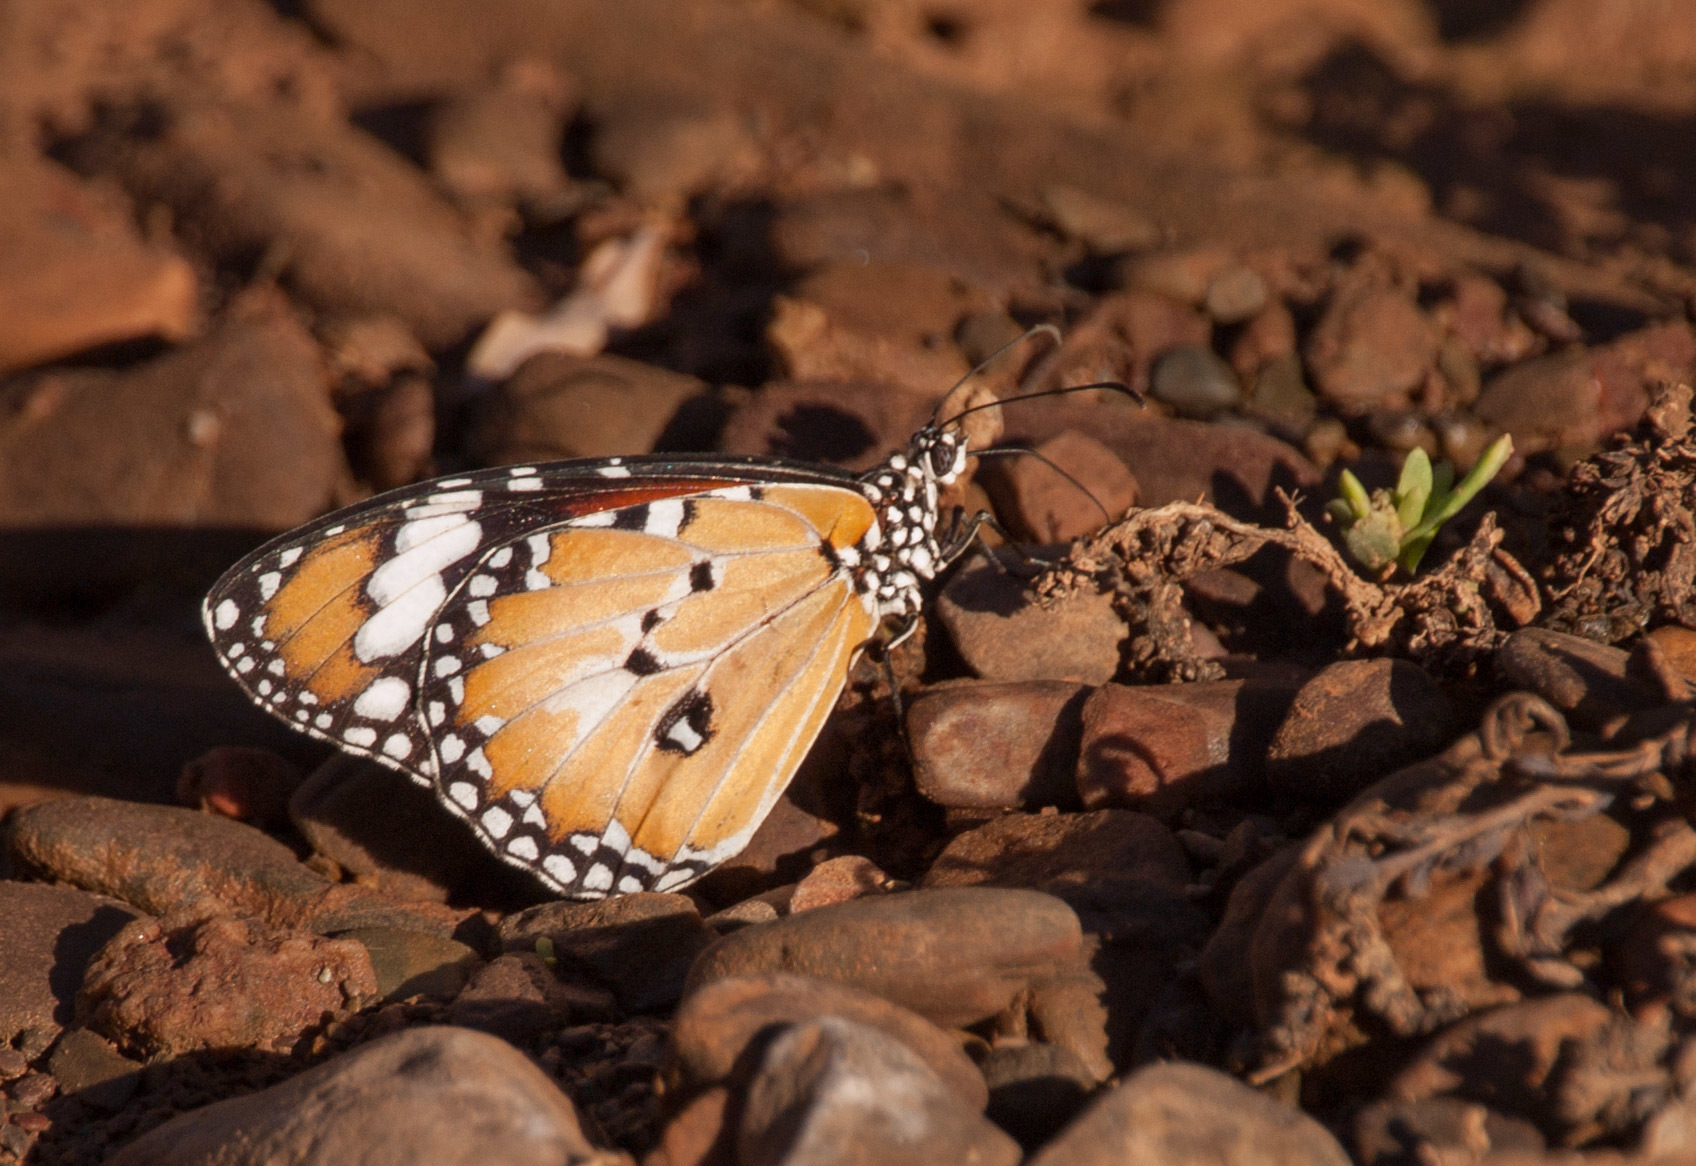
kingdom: Animalia
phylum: Arthropoda
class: Insecta
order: Lepidoptera
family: Nymphalidae
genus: Danaus
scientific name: Danaus chrysippus
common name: Plain tiger
